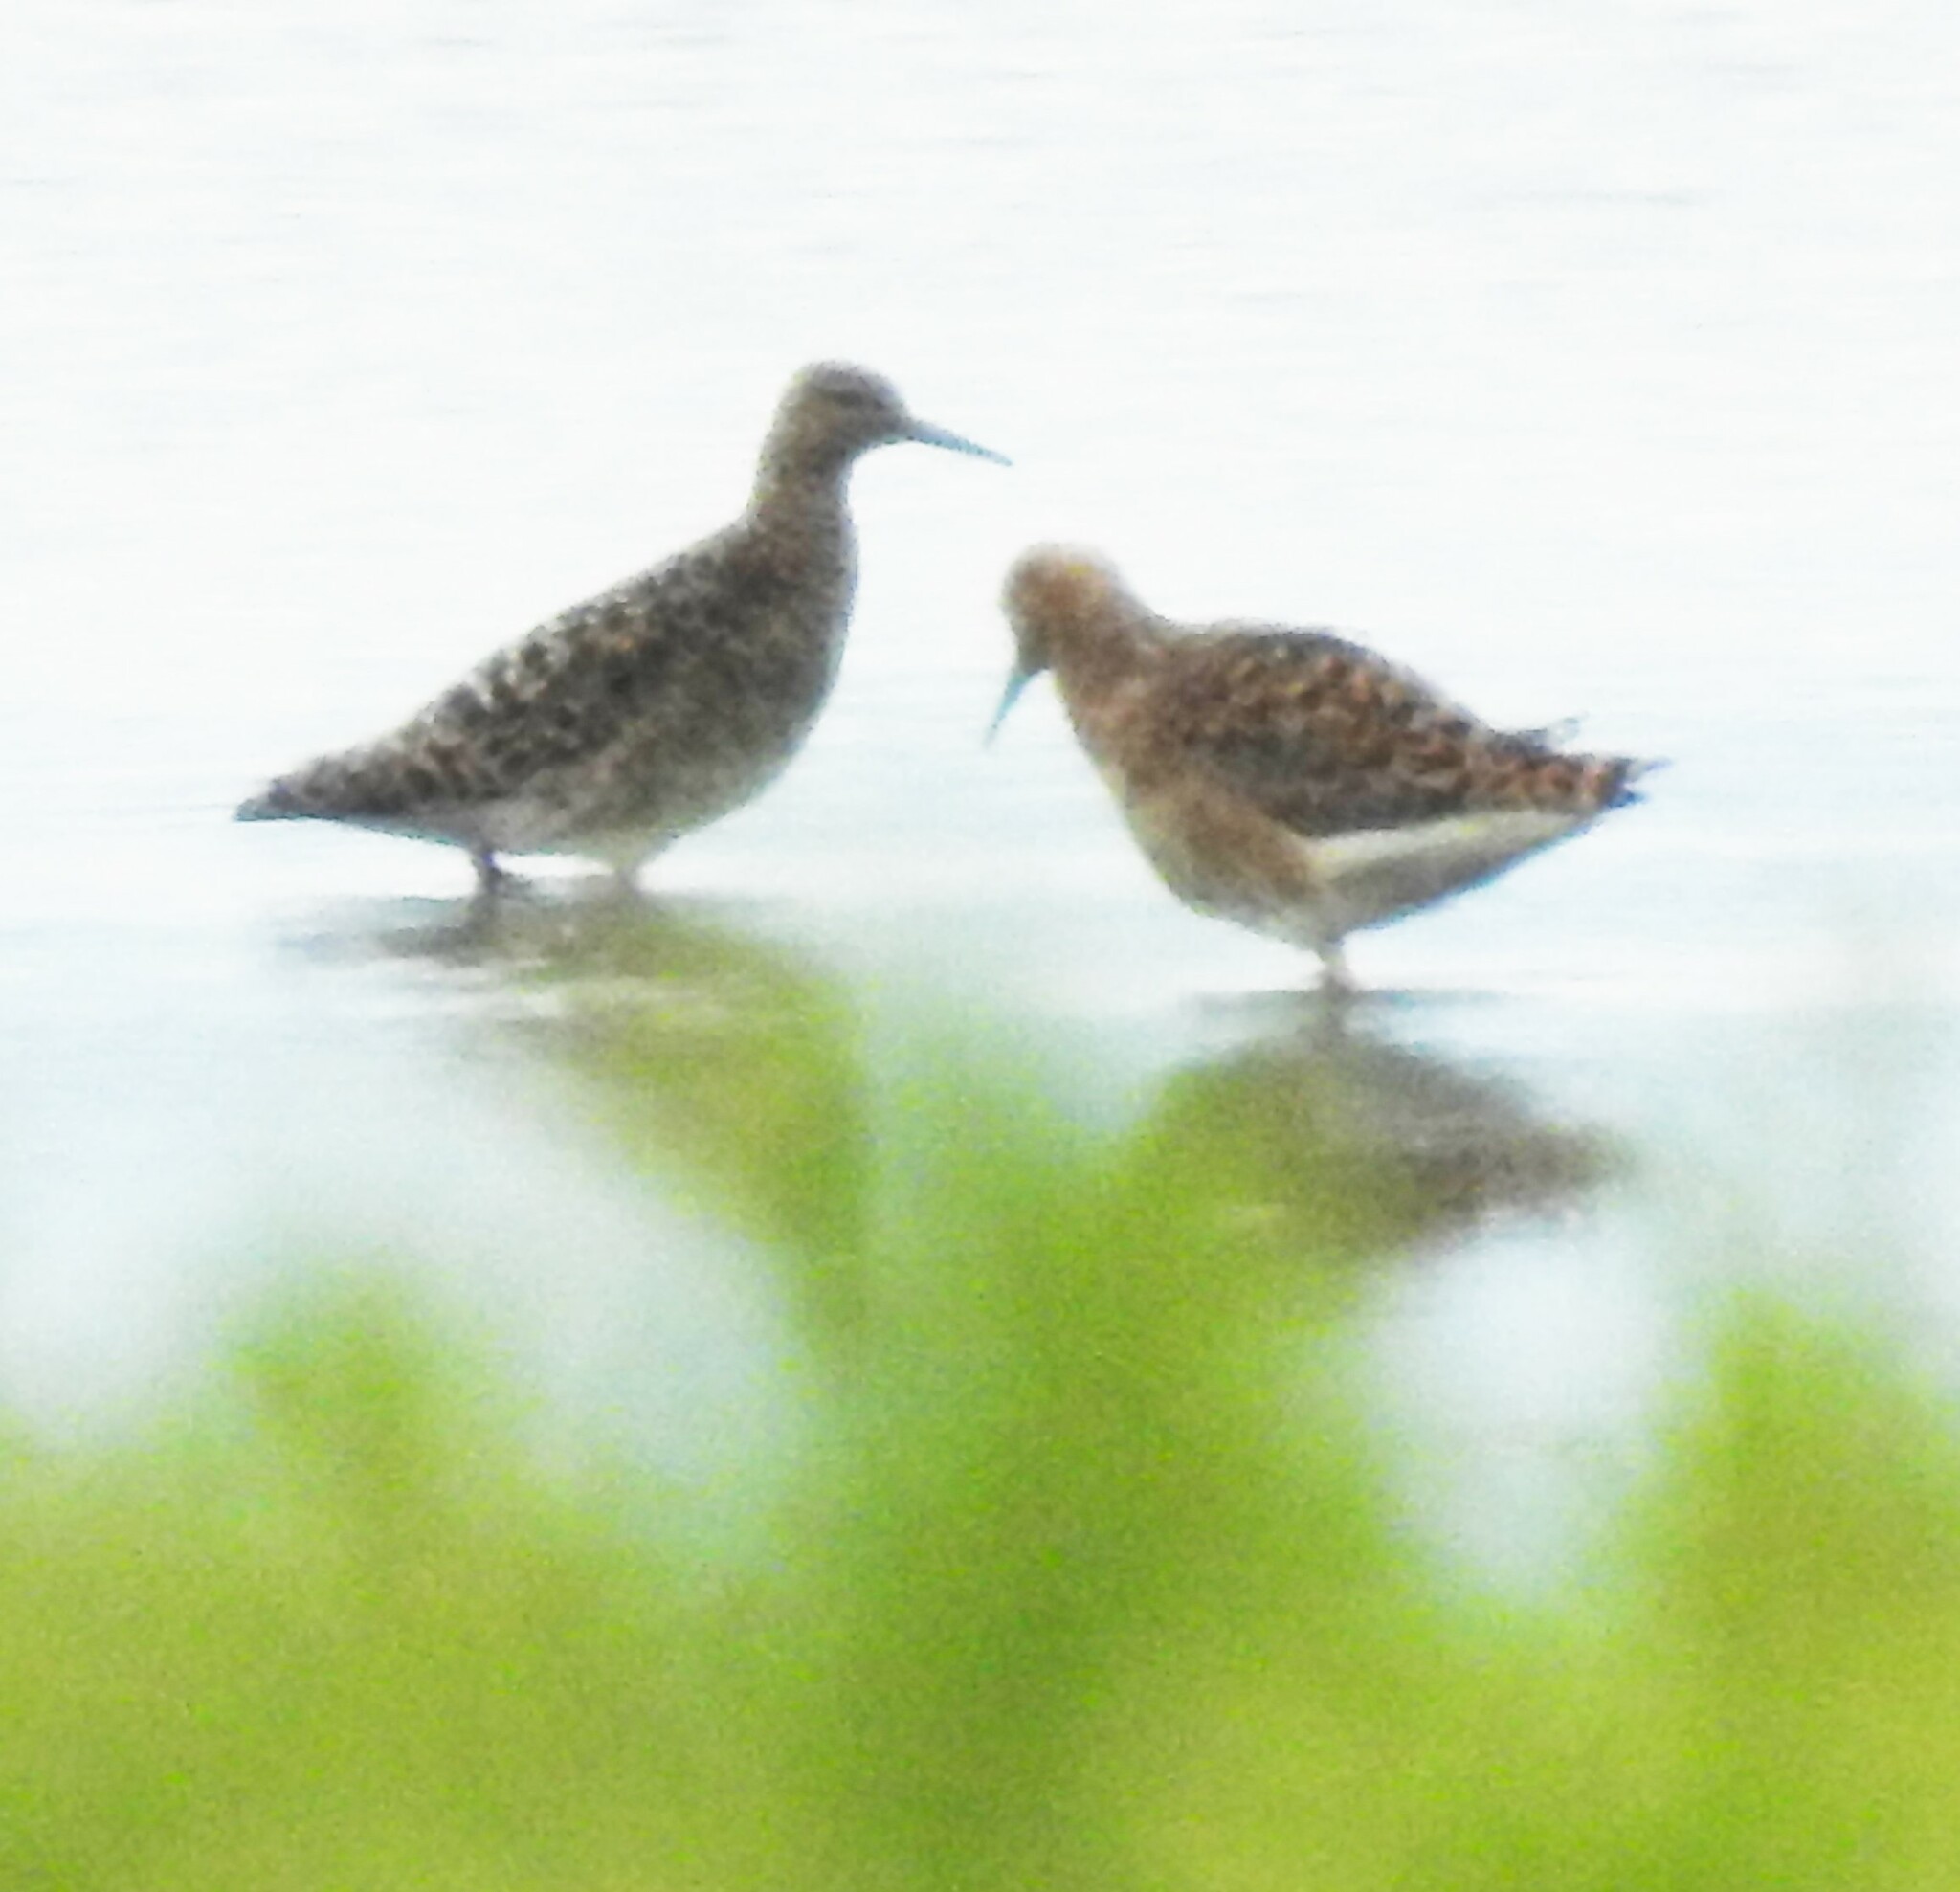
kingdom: Animalia
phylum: Chordata
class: Aves
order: Charadriiformes
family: Scolopacidae
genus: Calidris
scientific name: Calidris pugnax
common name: Ruff
